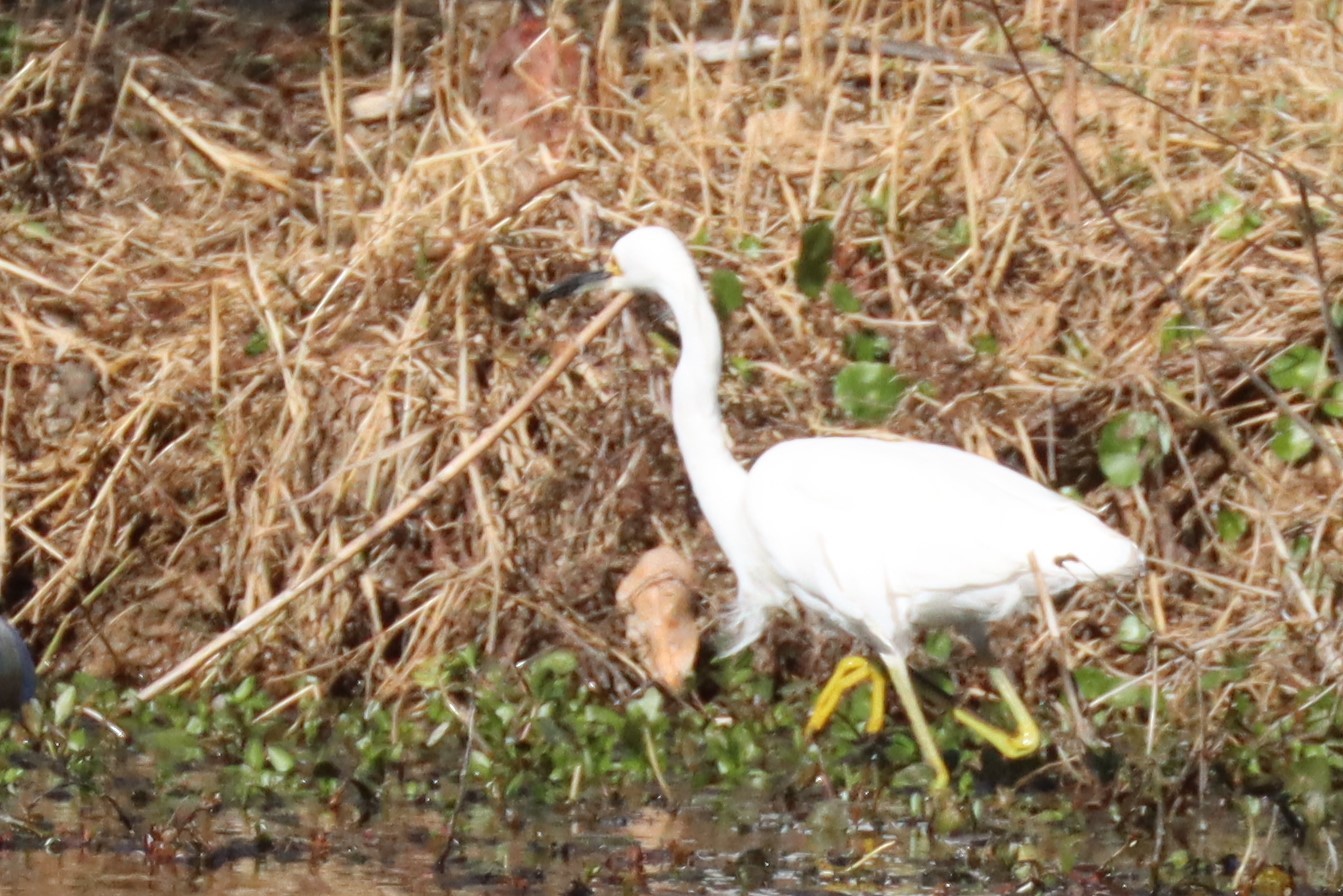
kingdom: Animalia
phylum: Chordata
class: Aves
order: Pelecaniformes
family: Ardeidae
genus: Egretta
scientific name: Egretta thula
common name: Snowy egret
